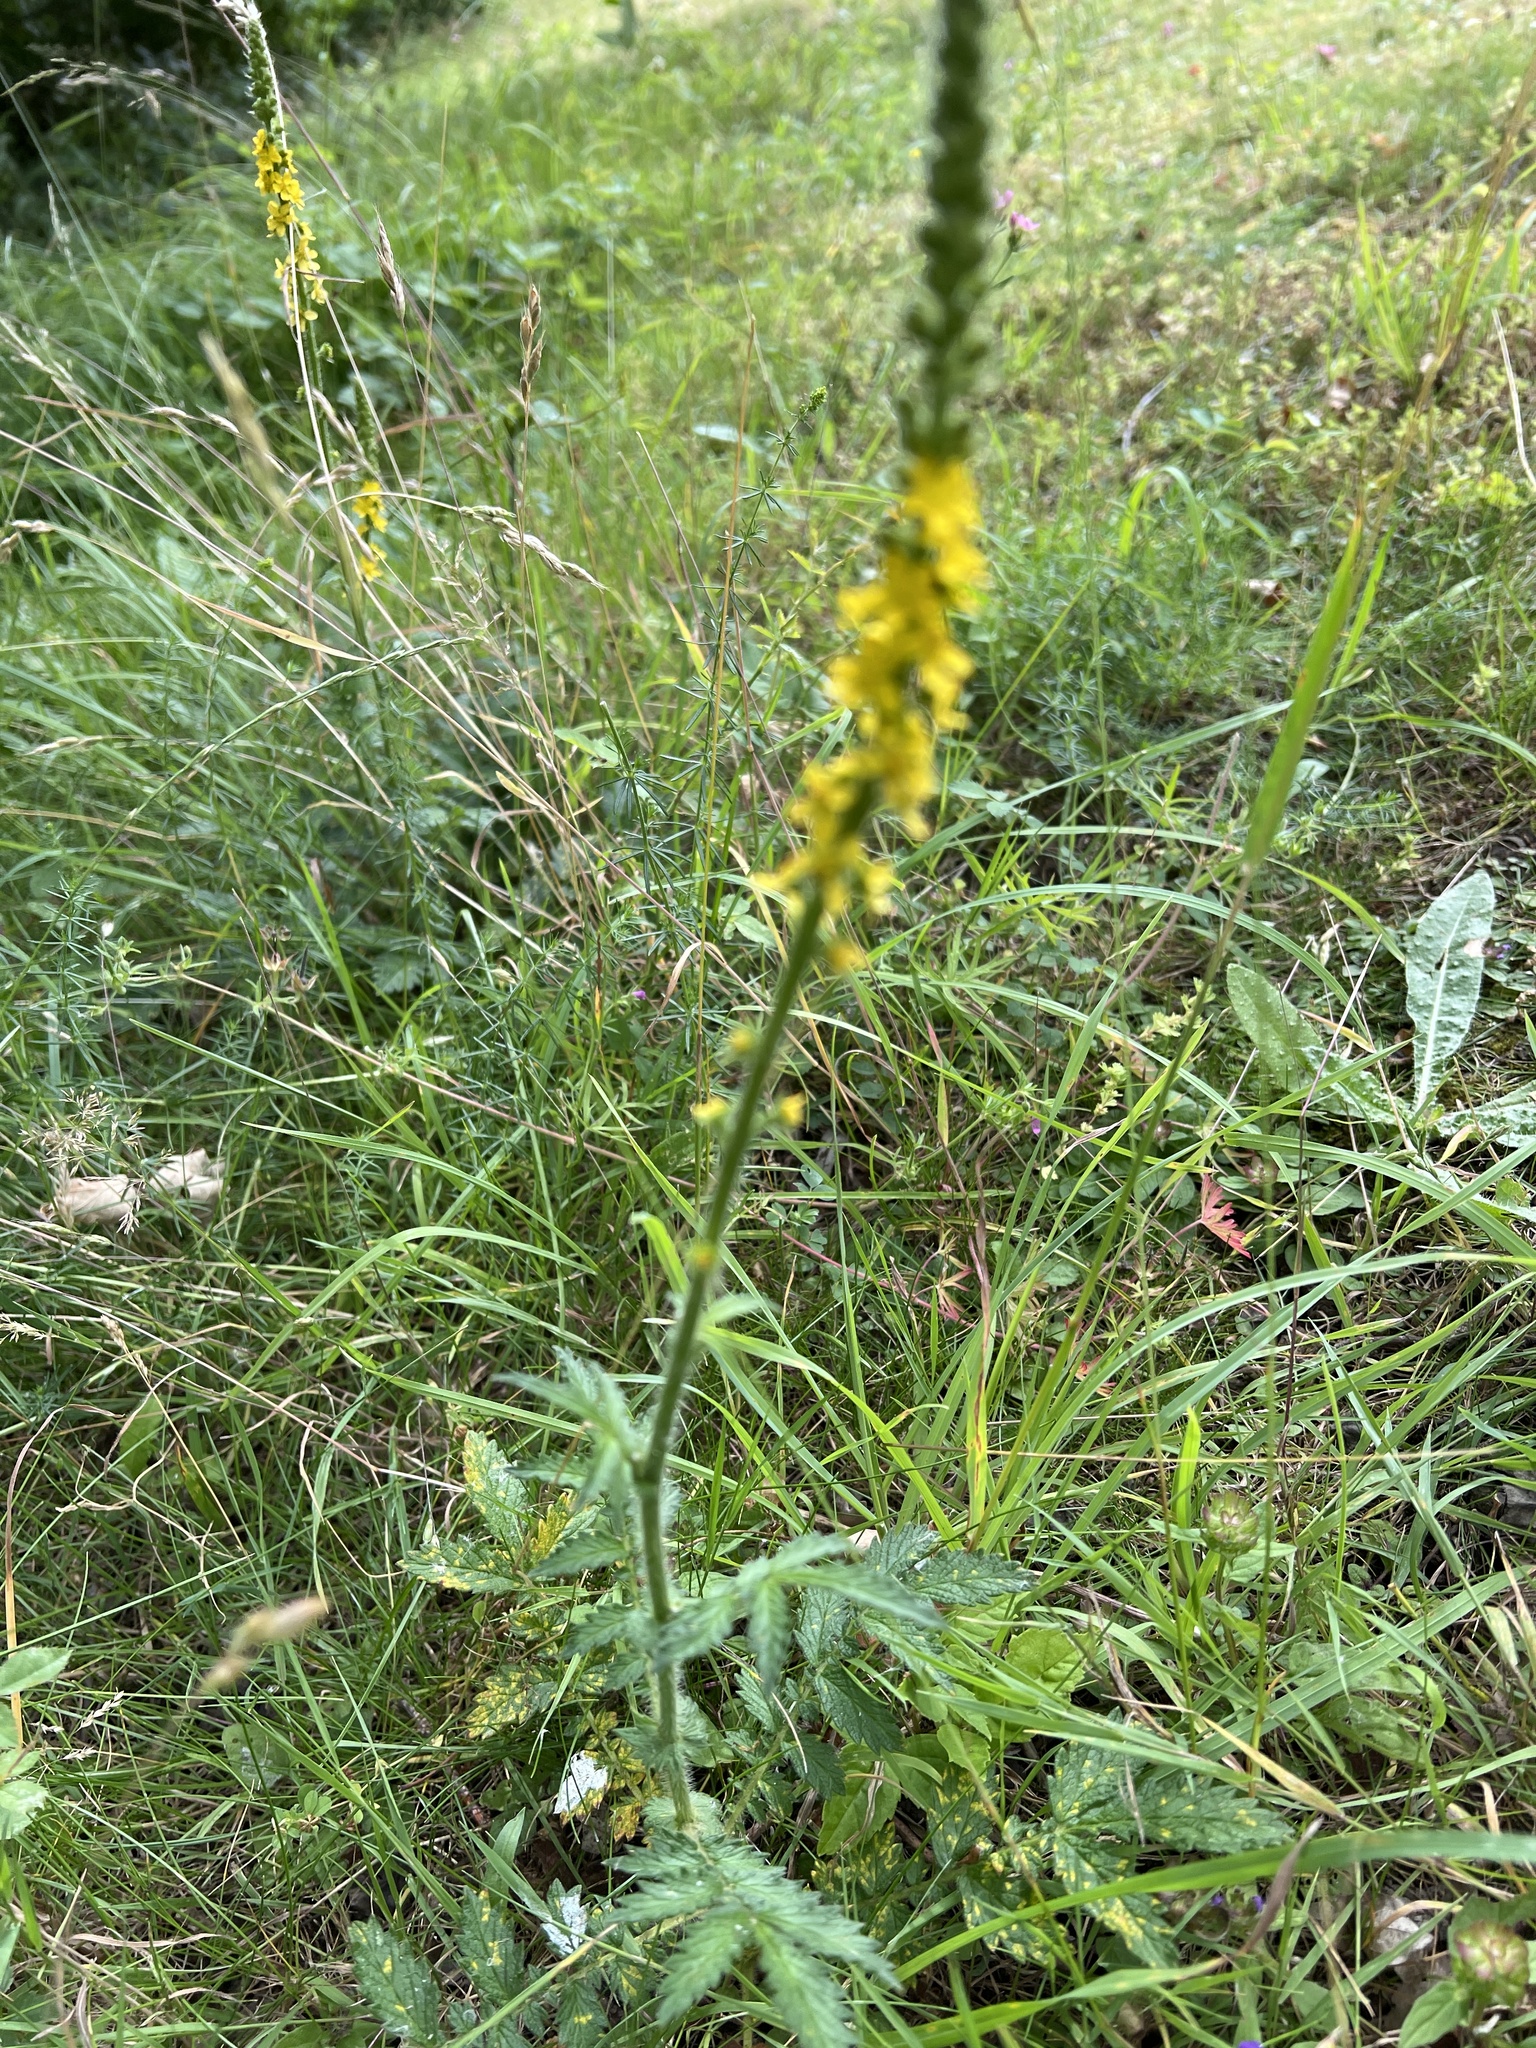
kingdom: Plantae
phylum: Tracheophyta
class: Magnoliopsida
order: Rosales
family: Rosaceae
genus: Agrimonia
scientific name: Agrimonia eupatoria
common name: Agrimony
